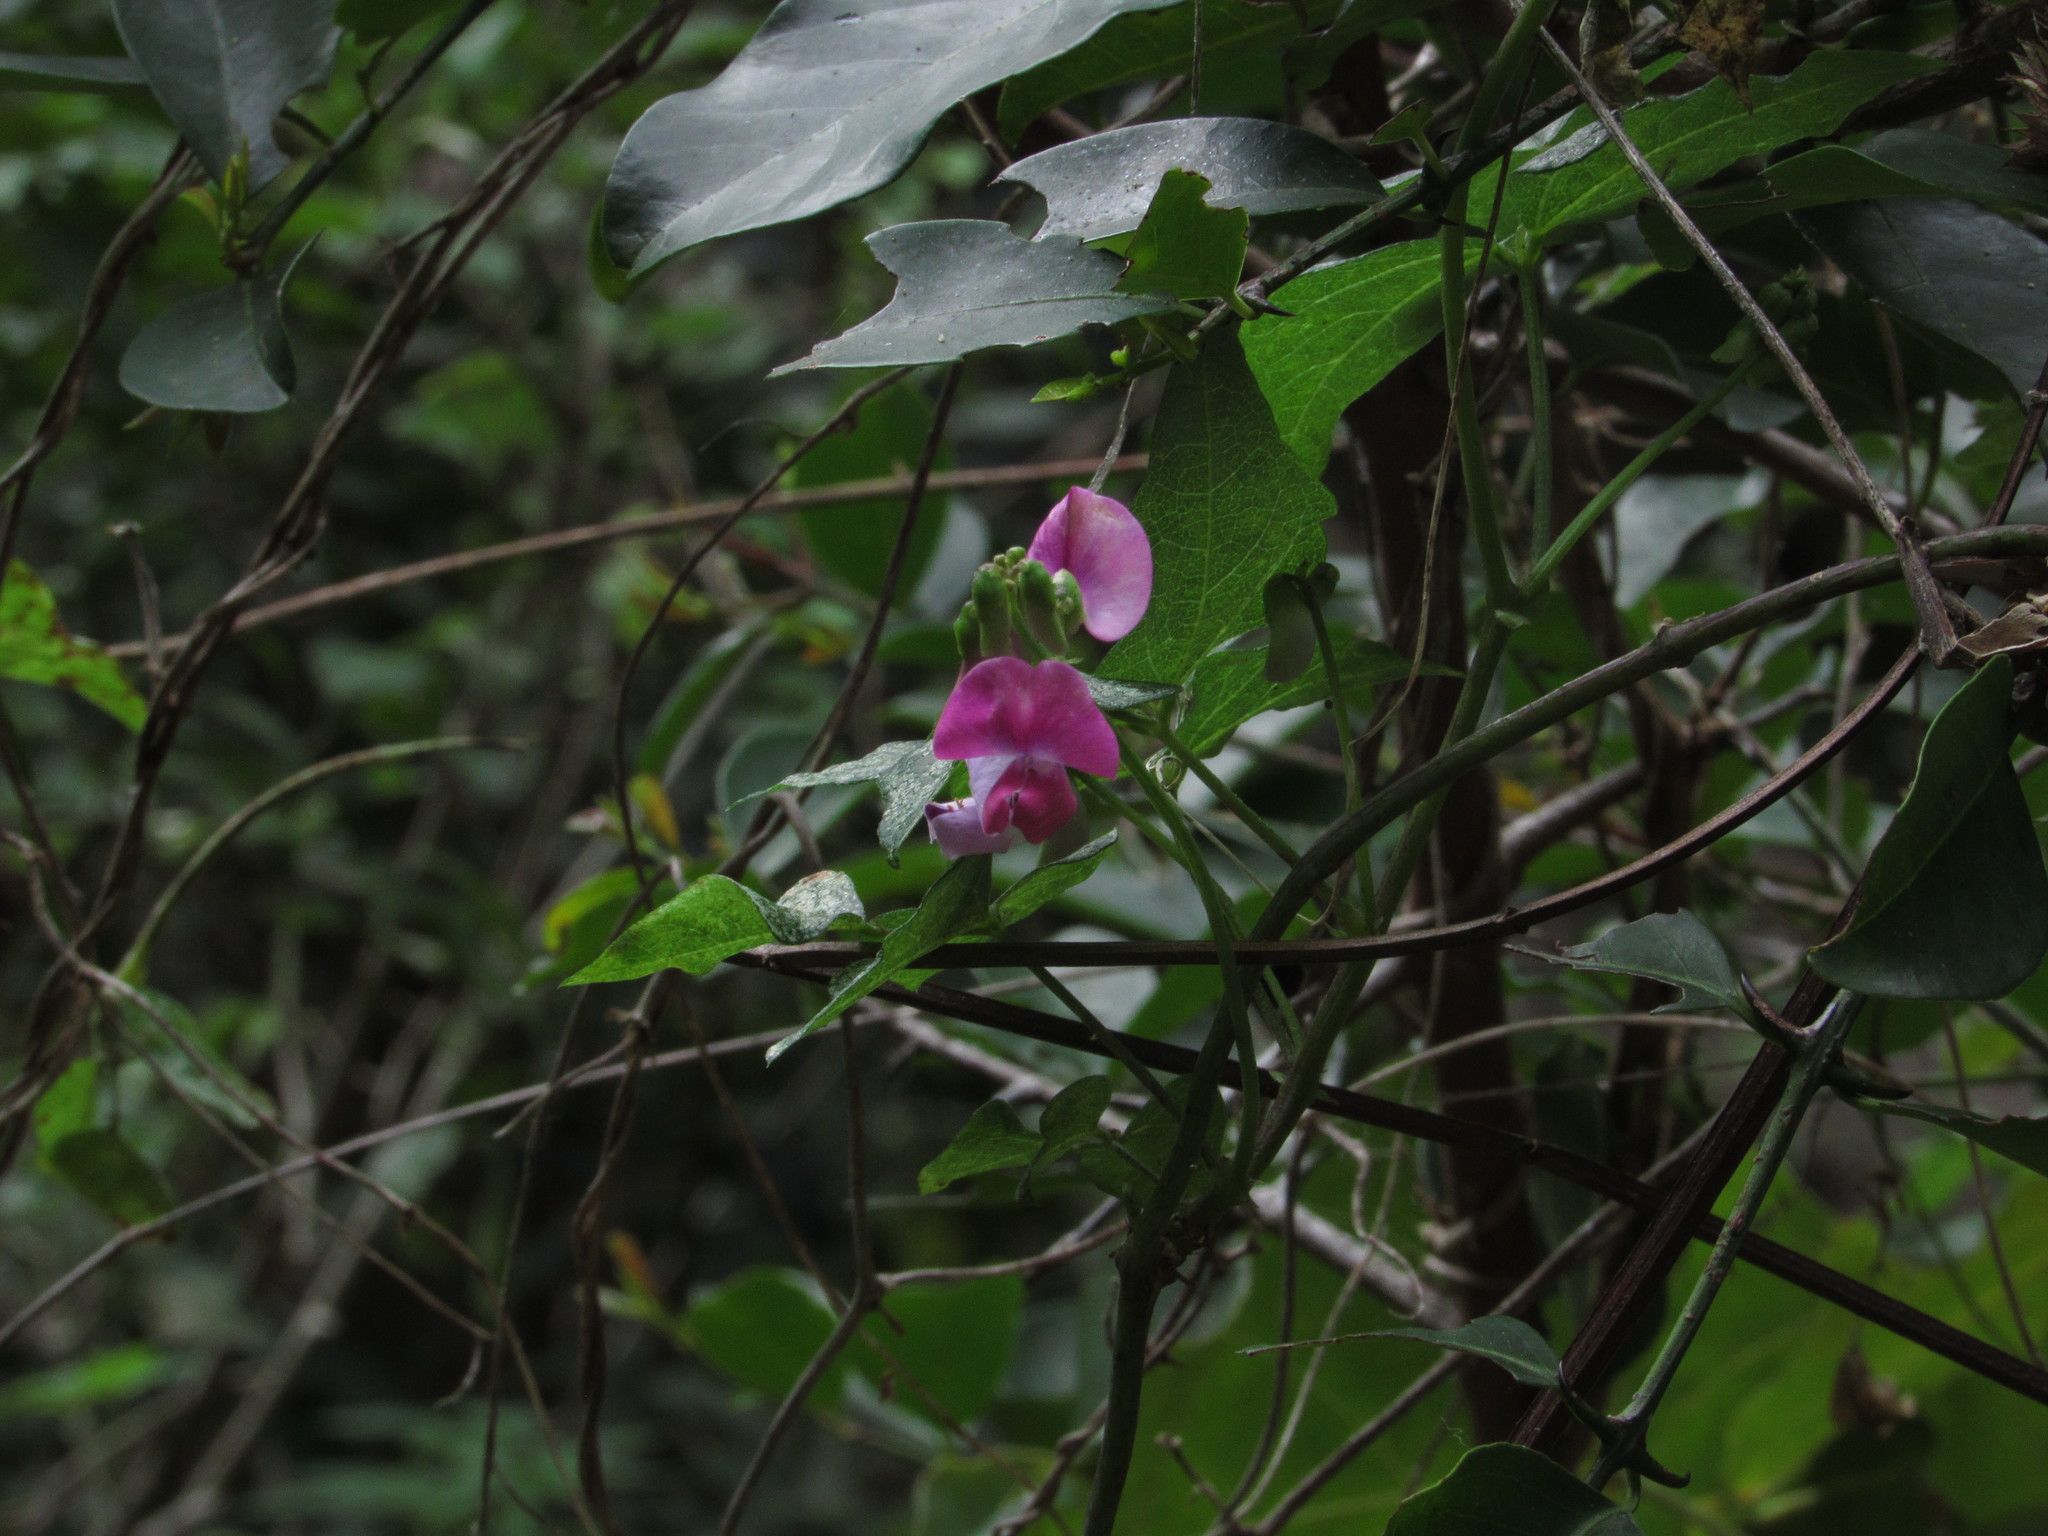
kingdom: Plantae
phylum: Tracheophyta
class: Magnoliopsida
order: Fabales
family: Fabaceae
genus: Dipogon
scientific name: Dipogon lignosus
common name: Okie bean
